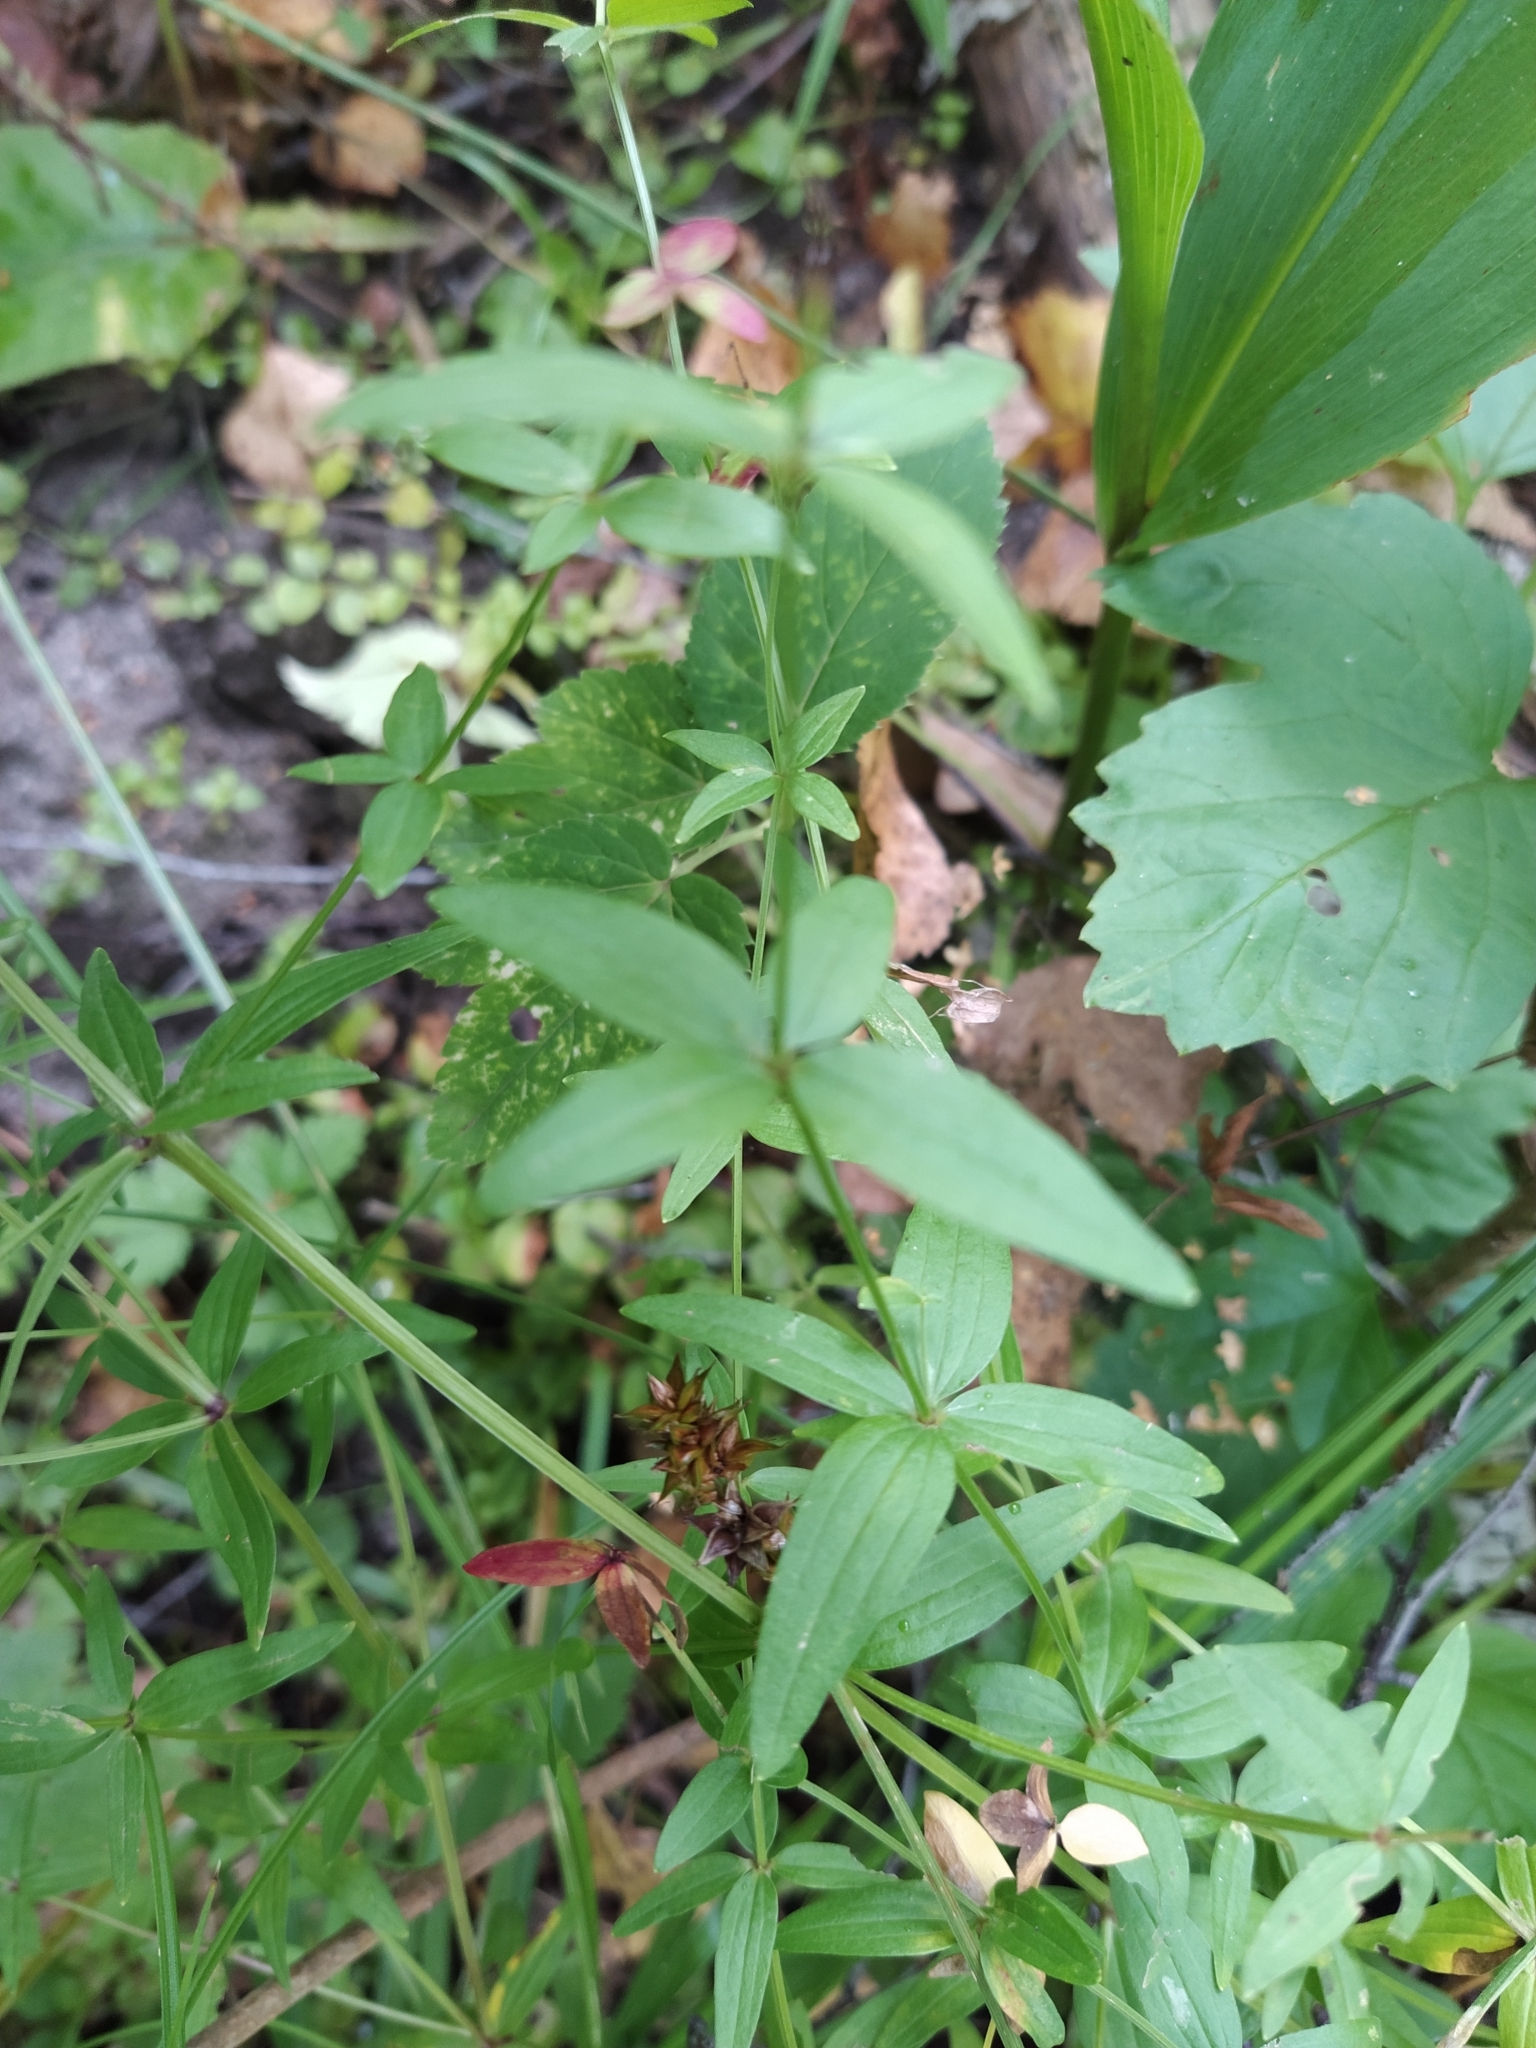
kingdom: Plantae
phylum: Tracheophyta
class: Magnoliopsida
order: Gentianales
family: Rubiaceae
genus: Galium
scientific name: Galium boreale
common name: Northern bedstraw
